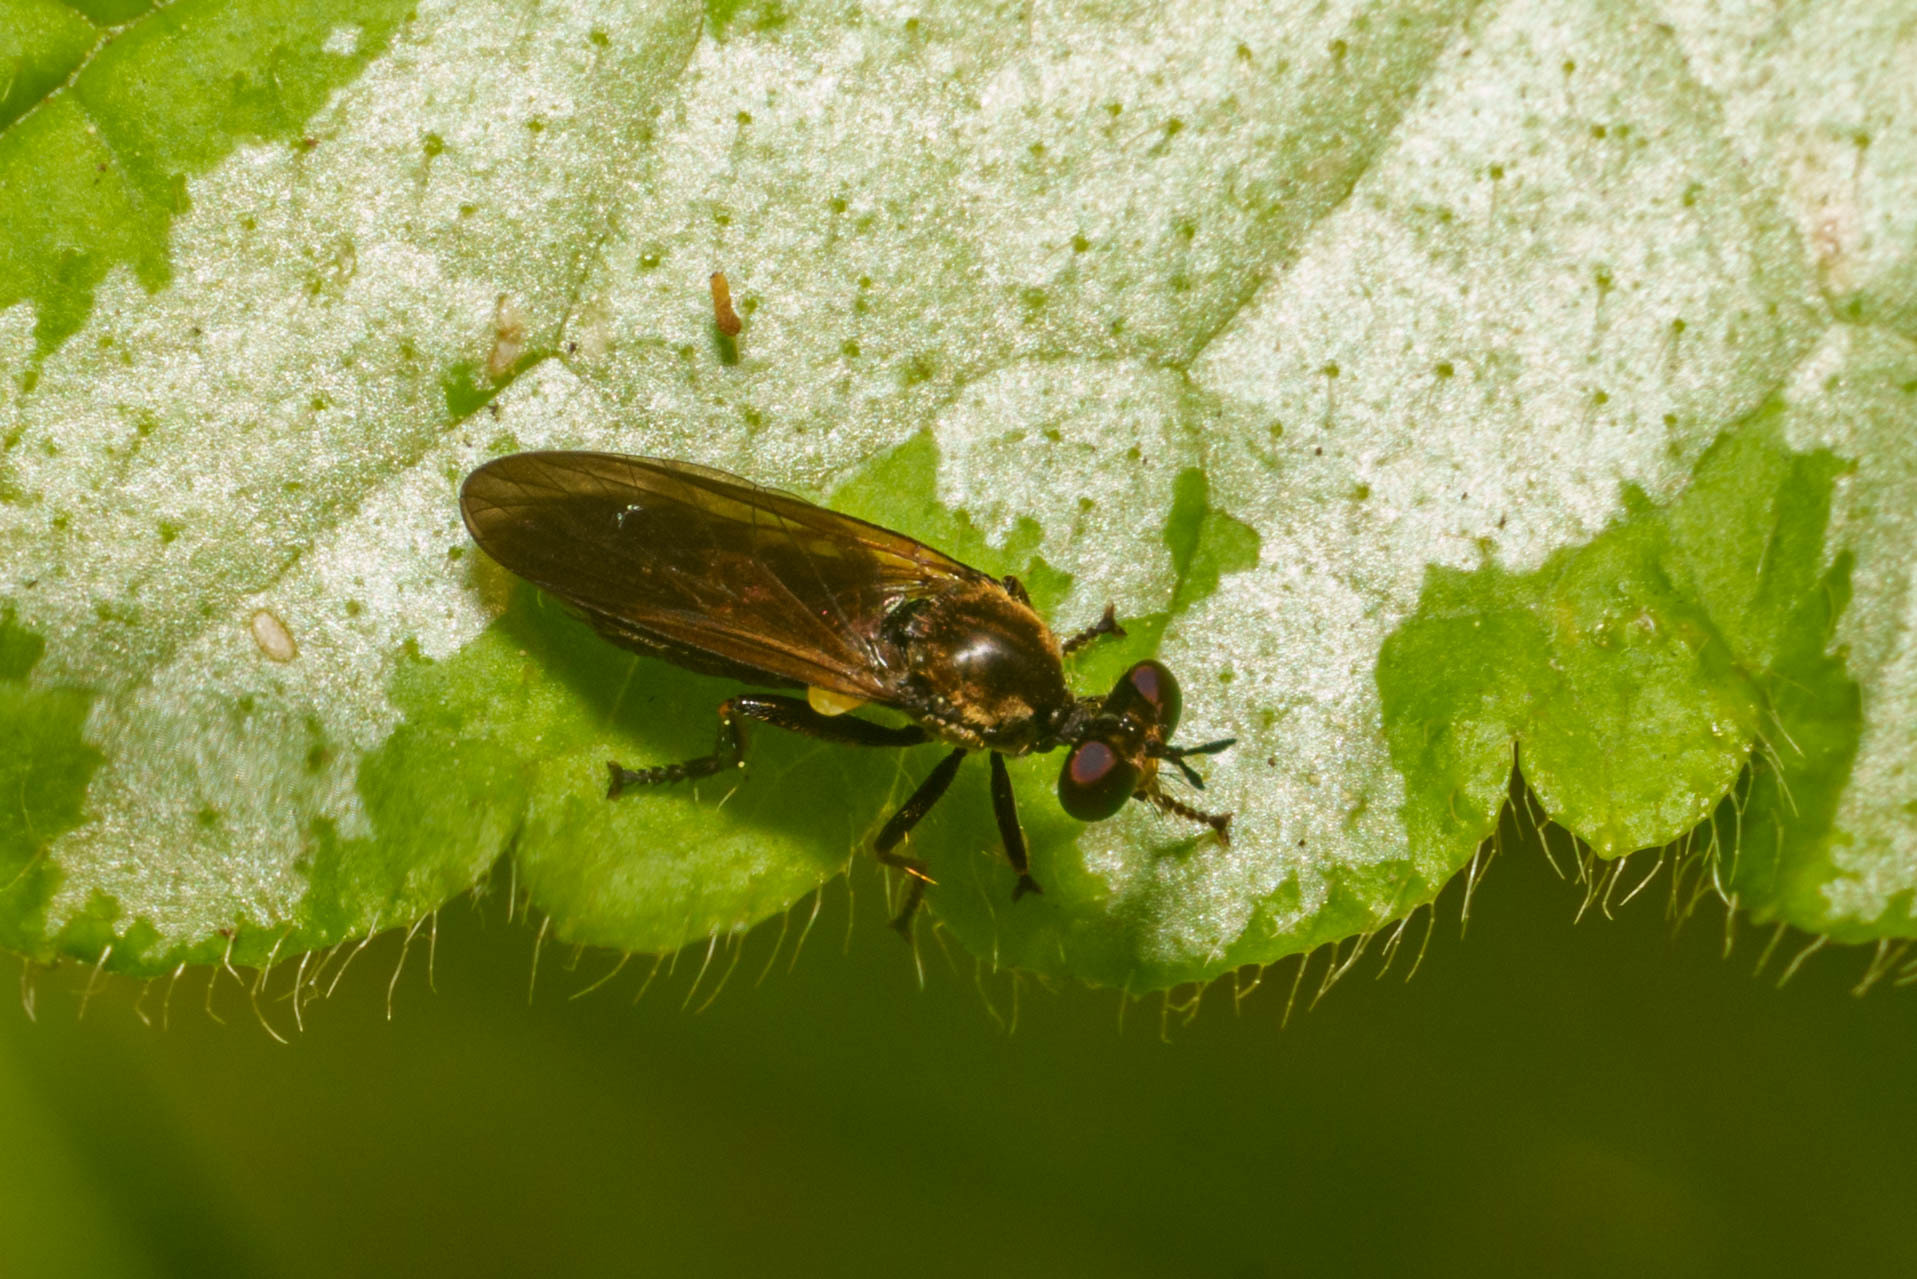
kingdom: Animalia
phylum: Arthropoda
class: Insecta
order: Diptera
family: Asilidae
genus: Eudioctria
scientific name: Eudioctria sackeni
